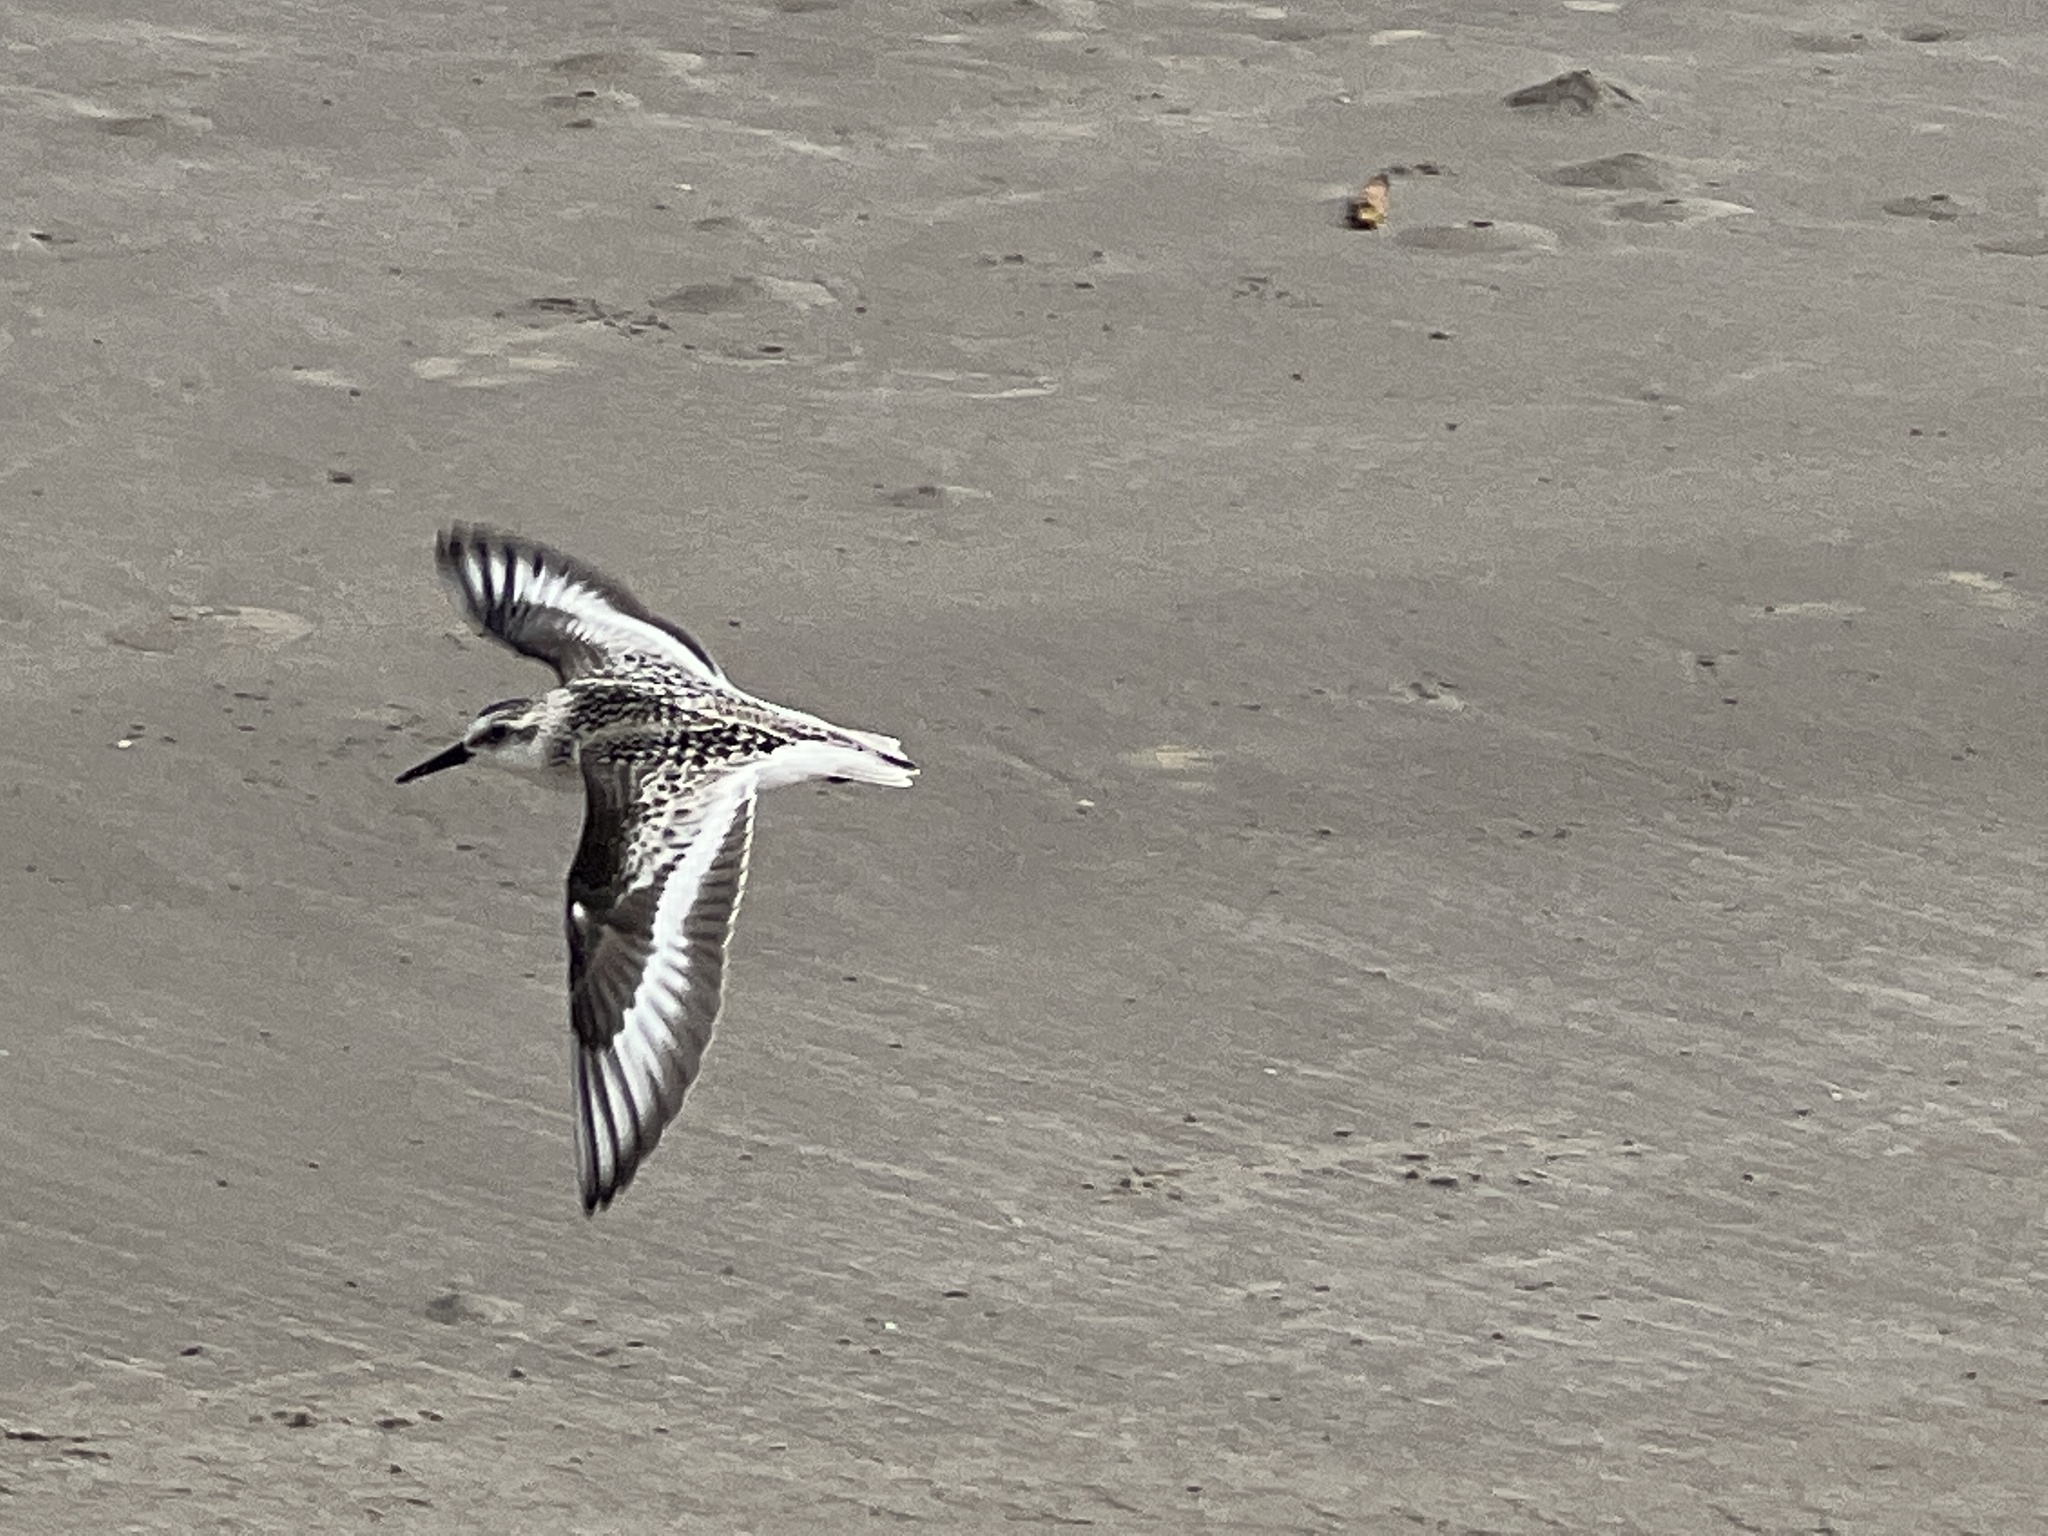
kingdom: Animalia
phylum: Chordata
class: Aves
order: Charadriiformes
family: Scolopacidae
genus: Calidris
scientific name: Calidris alba
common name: Sanderling
